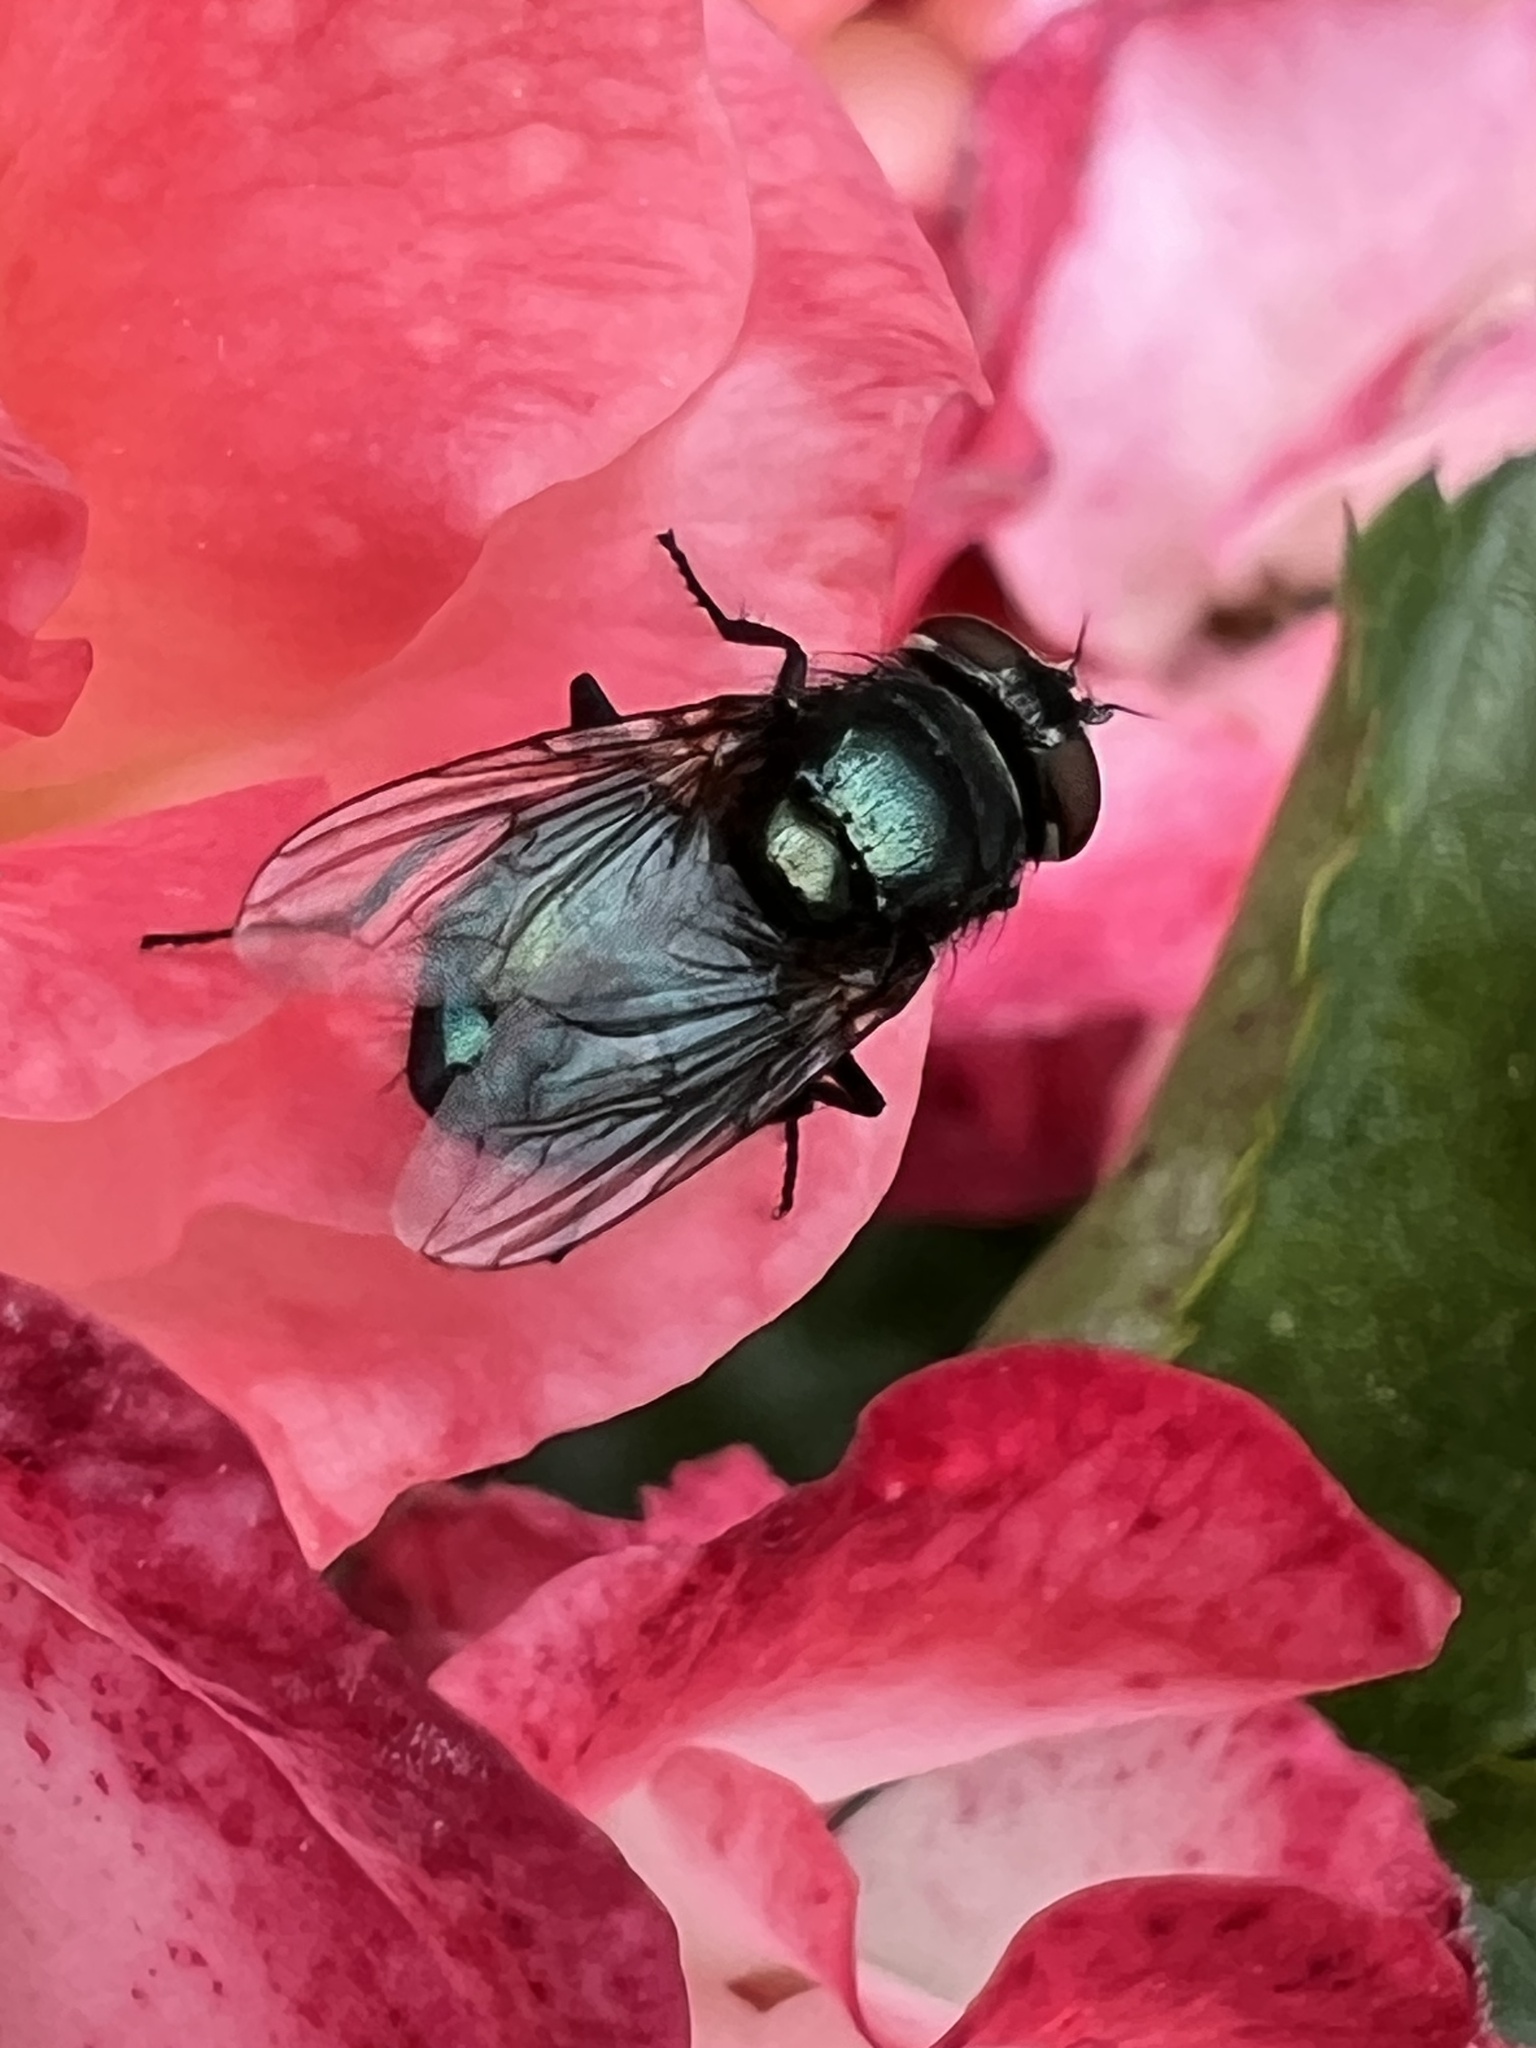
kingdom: Animalia
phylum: Arthropoda
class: Insecta
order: Diptera
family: Calliphoridae
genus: Phormia
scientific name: Phormia regina
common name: Black blow fly
